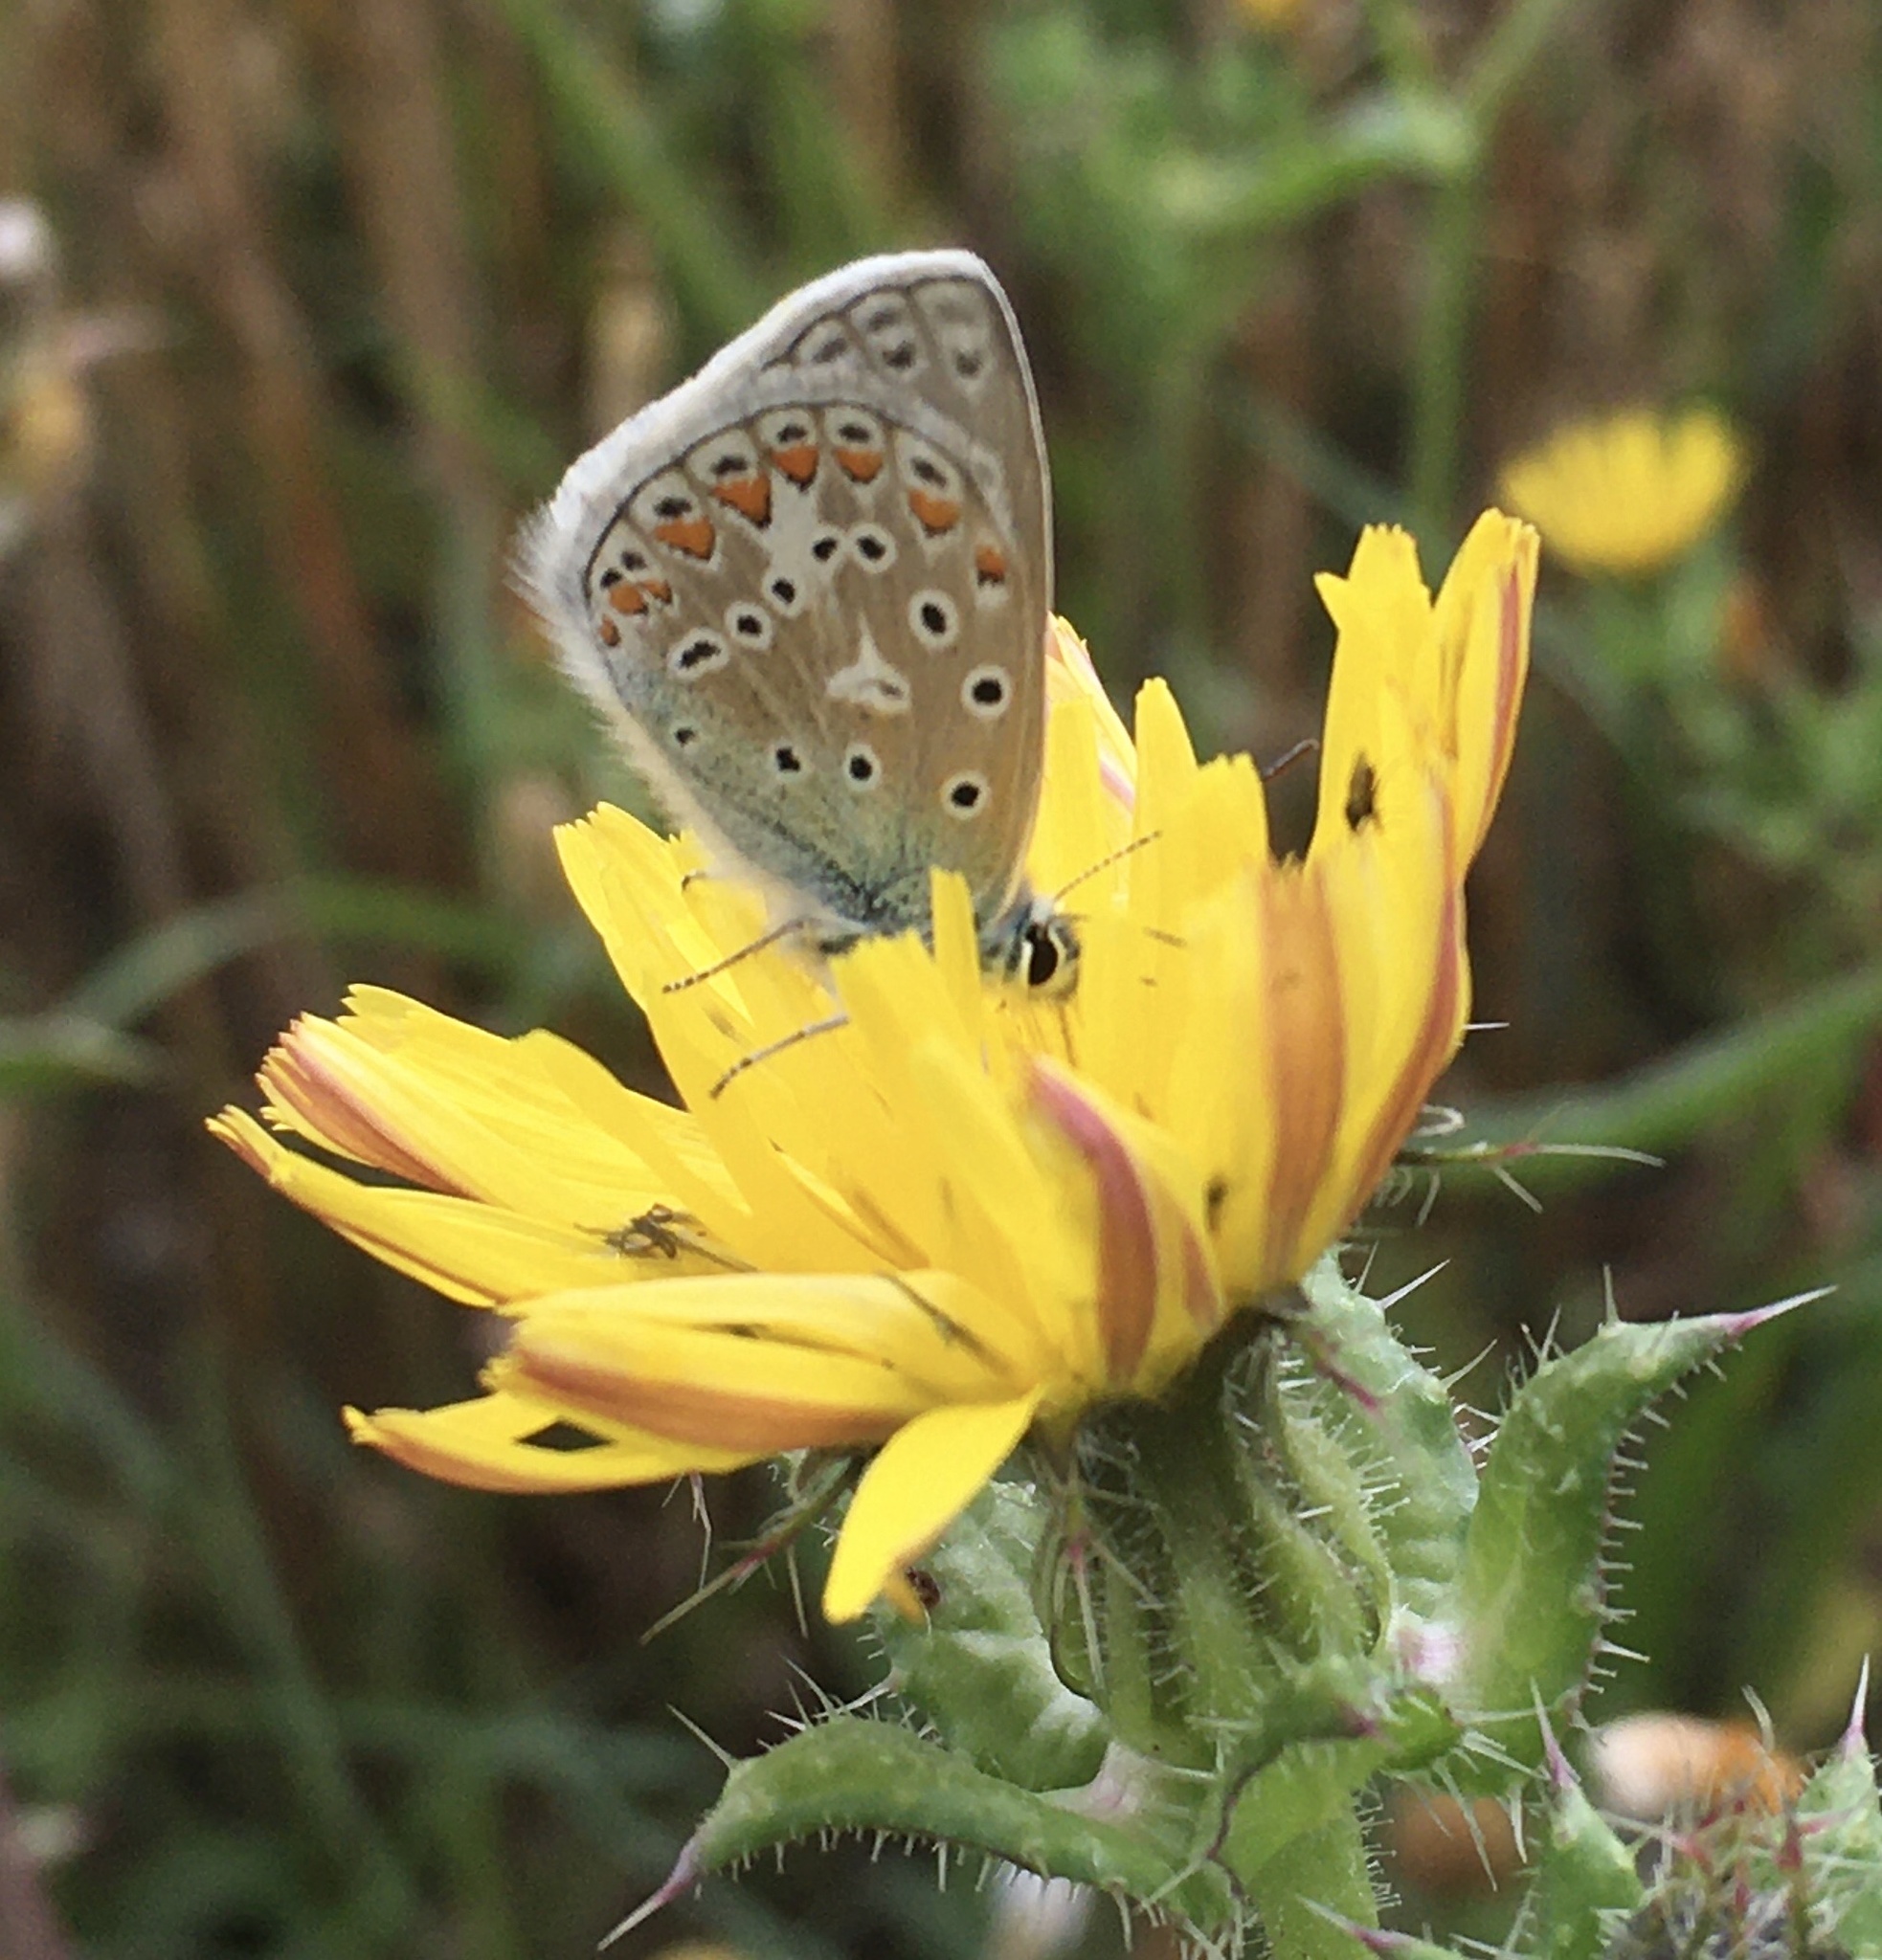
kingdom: Animalia
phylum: Arthropoda
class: Insecta
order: Lepidoptera
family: Lycaenidae
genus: Polyommatus
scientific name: Polyommatus icarus
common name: Common blue
